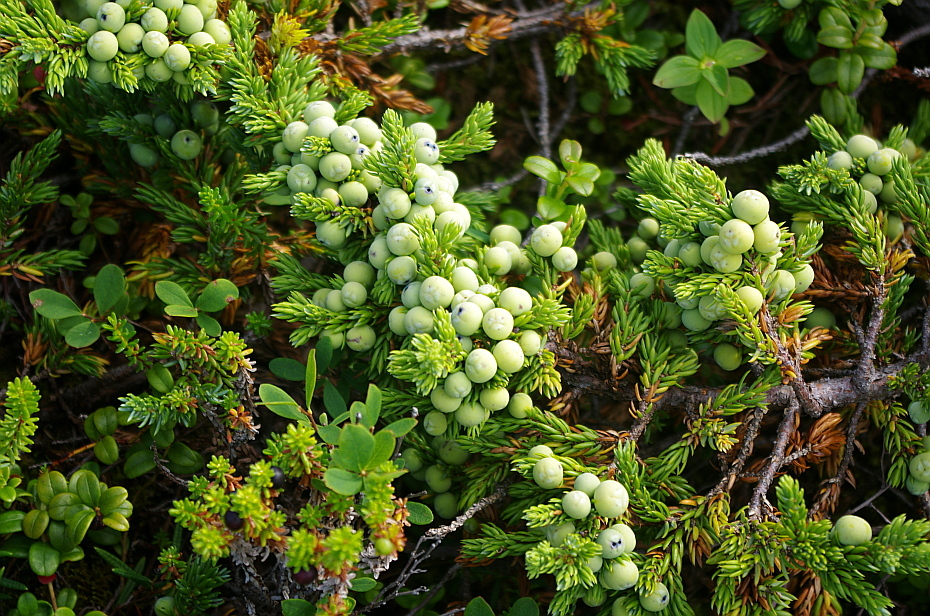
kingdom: Plantae
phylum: Tracheophyta
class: Pinopsida
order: Pinales
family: Cupressaceae
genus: Juniperus
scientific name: Juniperus communis
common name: Common juniper
